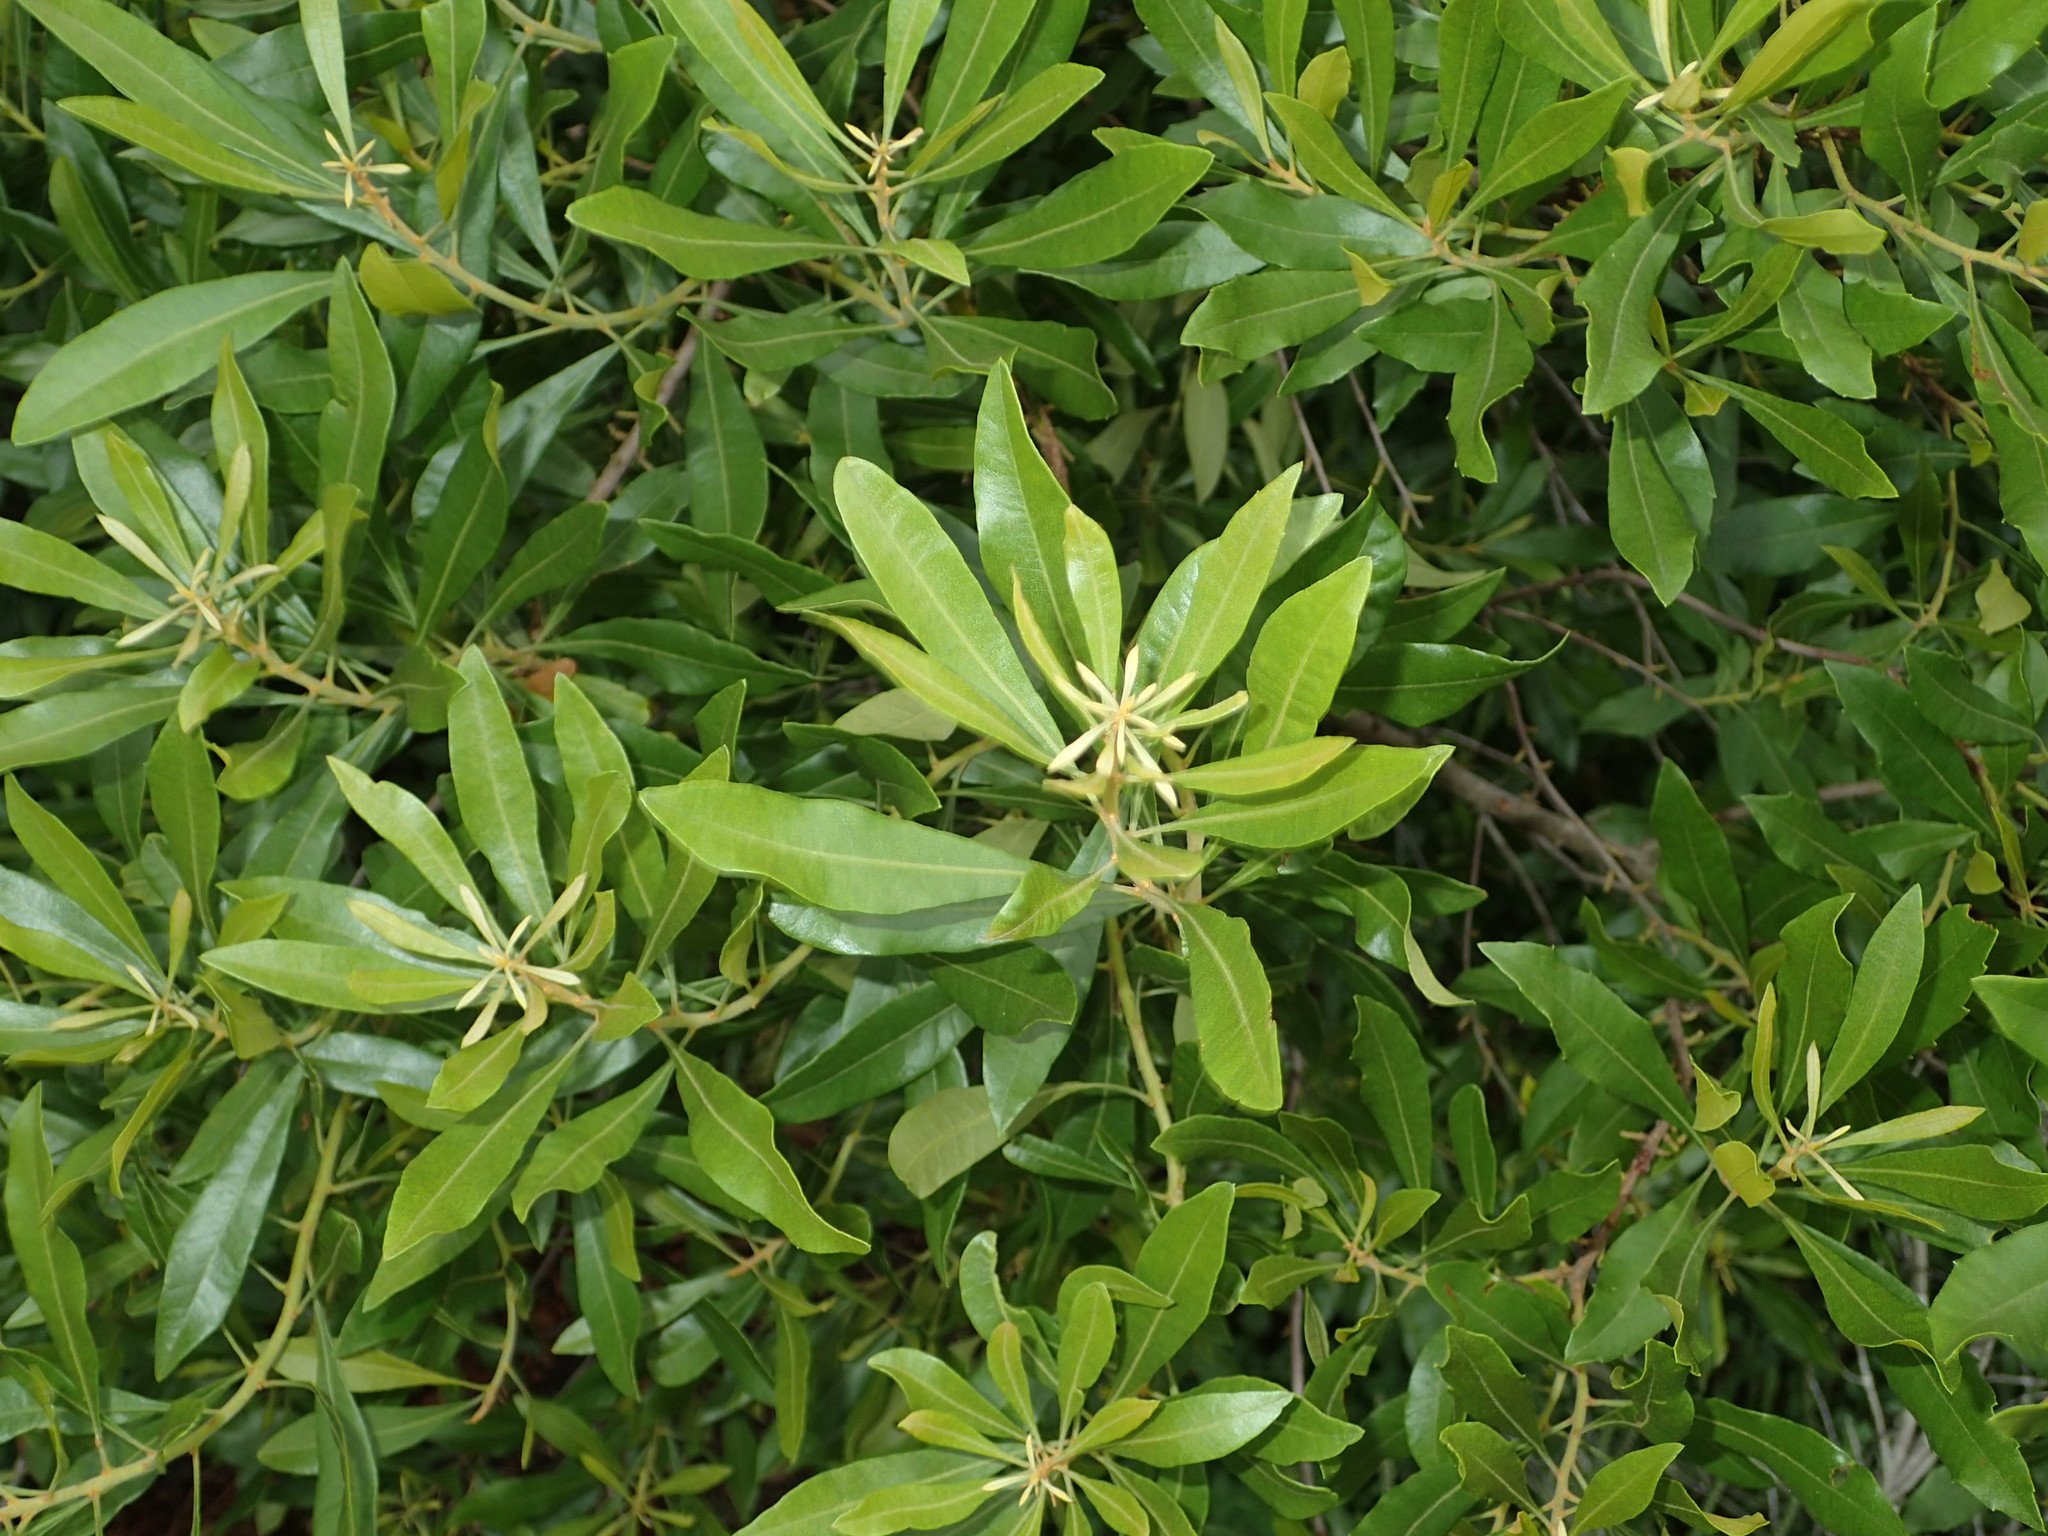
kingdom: Plantae
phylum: Tracheophyta
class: Magnoliopsida
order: Fagales
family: Myricaceae
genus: Morella
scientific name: Morella cerifera
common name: Wax myrtle
